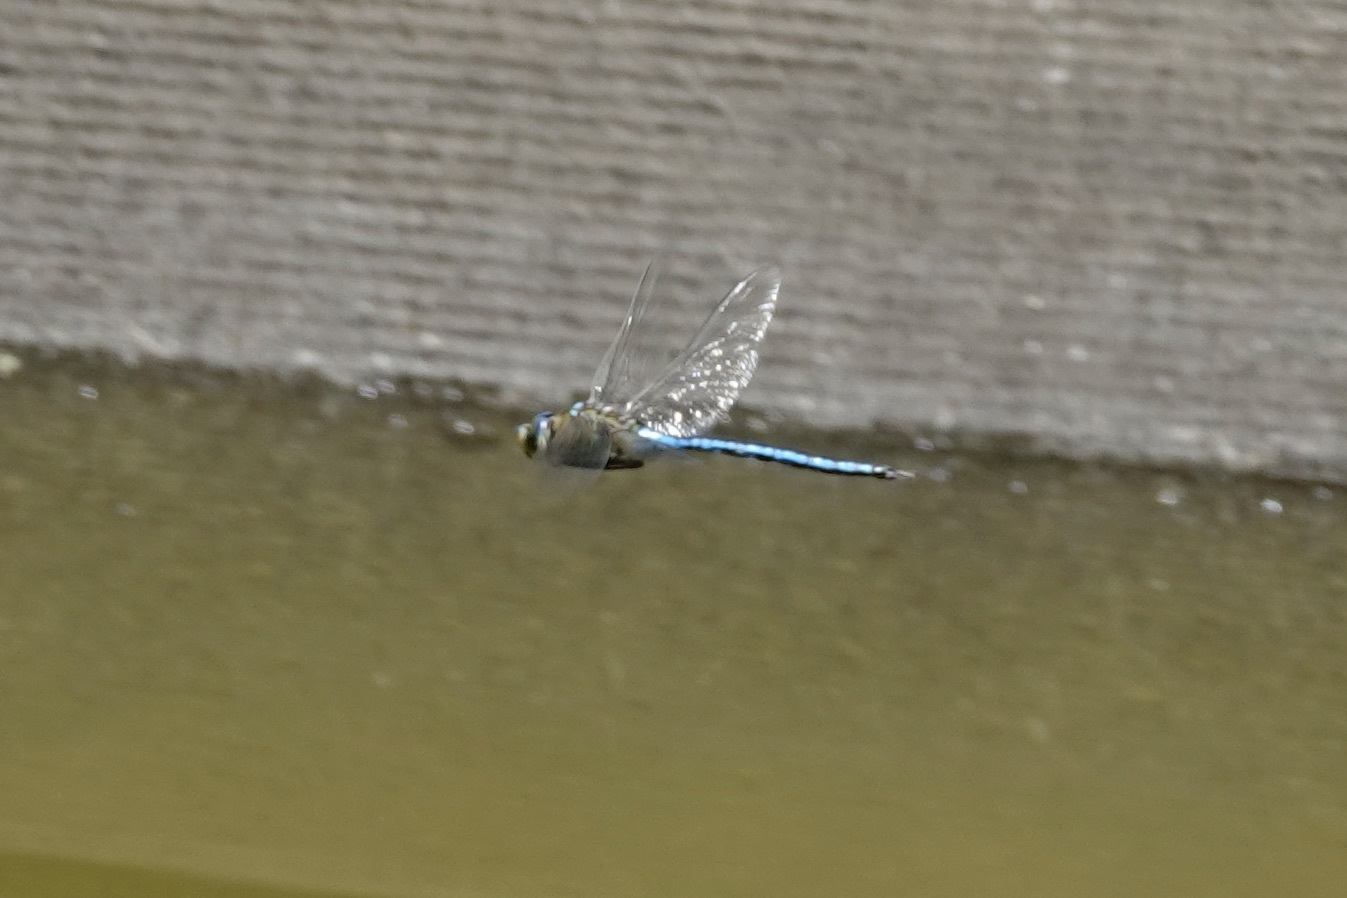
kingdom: Animalia
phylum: Arthropoda
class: Insecta
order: Odonata
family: Aeshnidae
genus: Anax
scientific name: Anax imperator
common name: Emperor dragonfly
